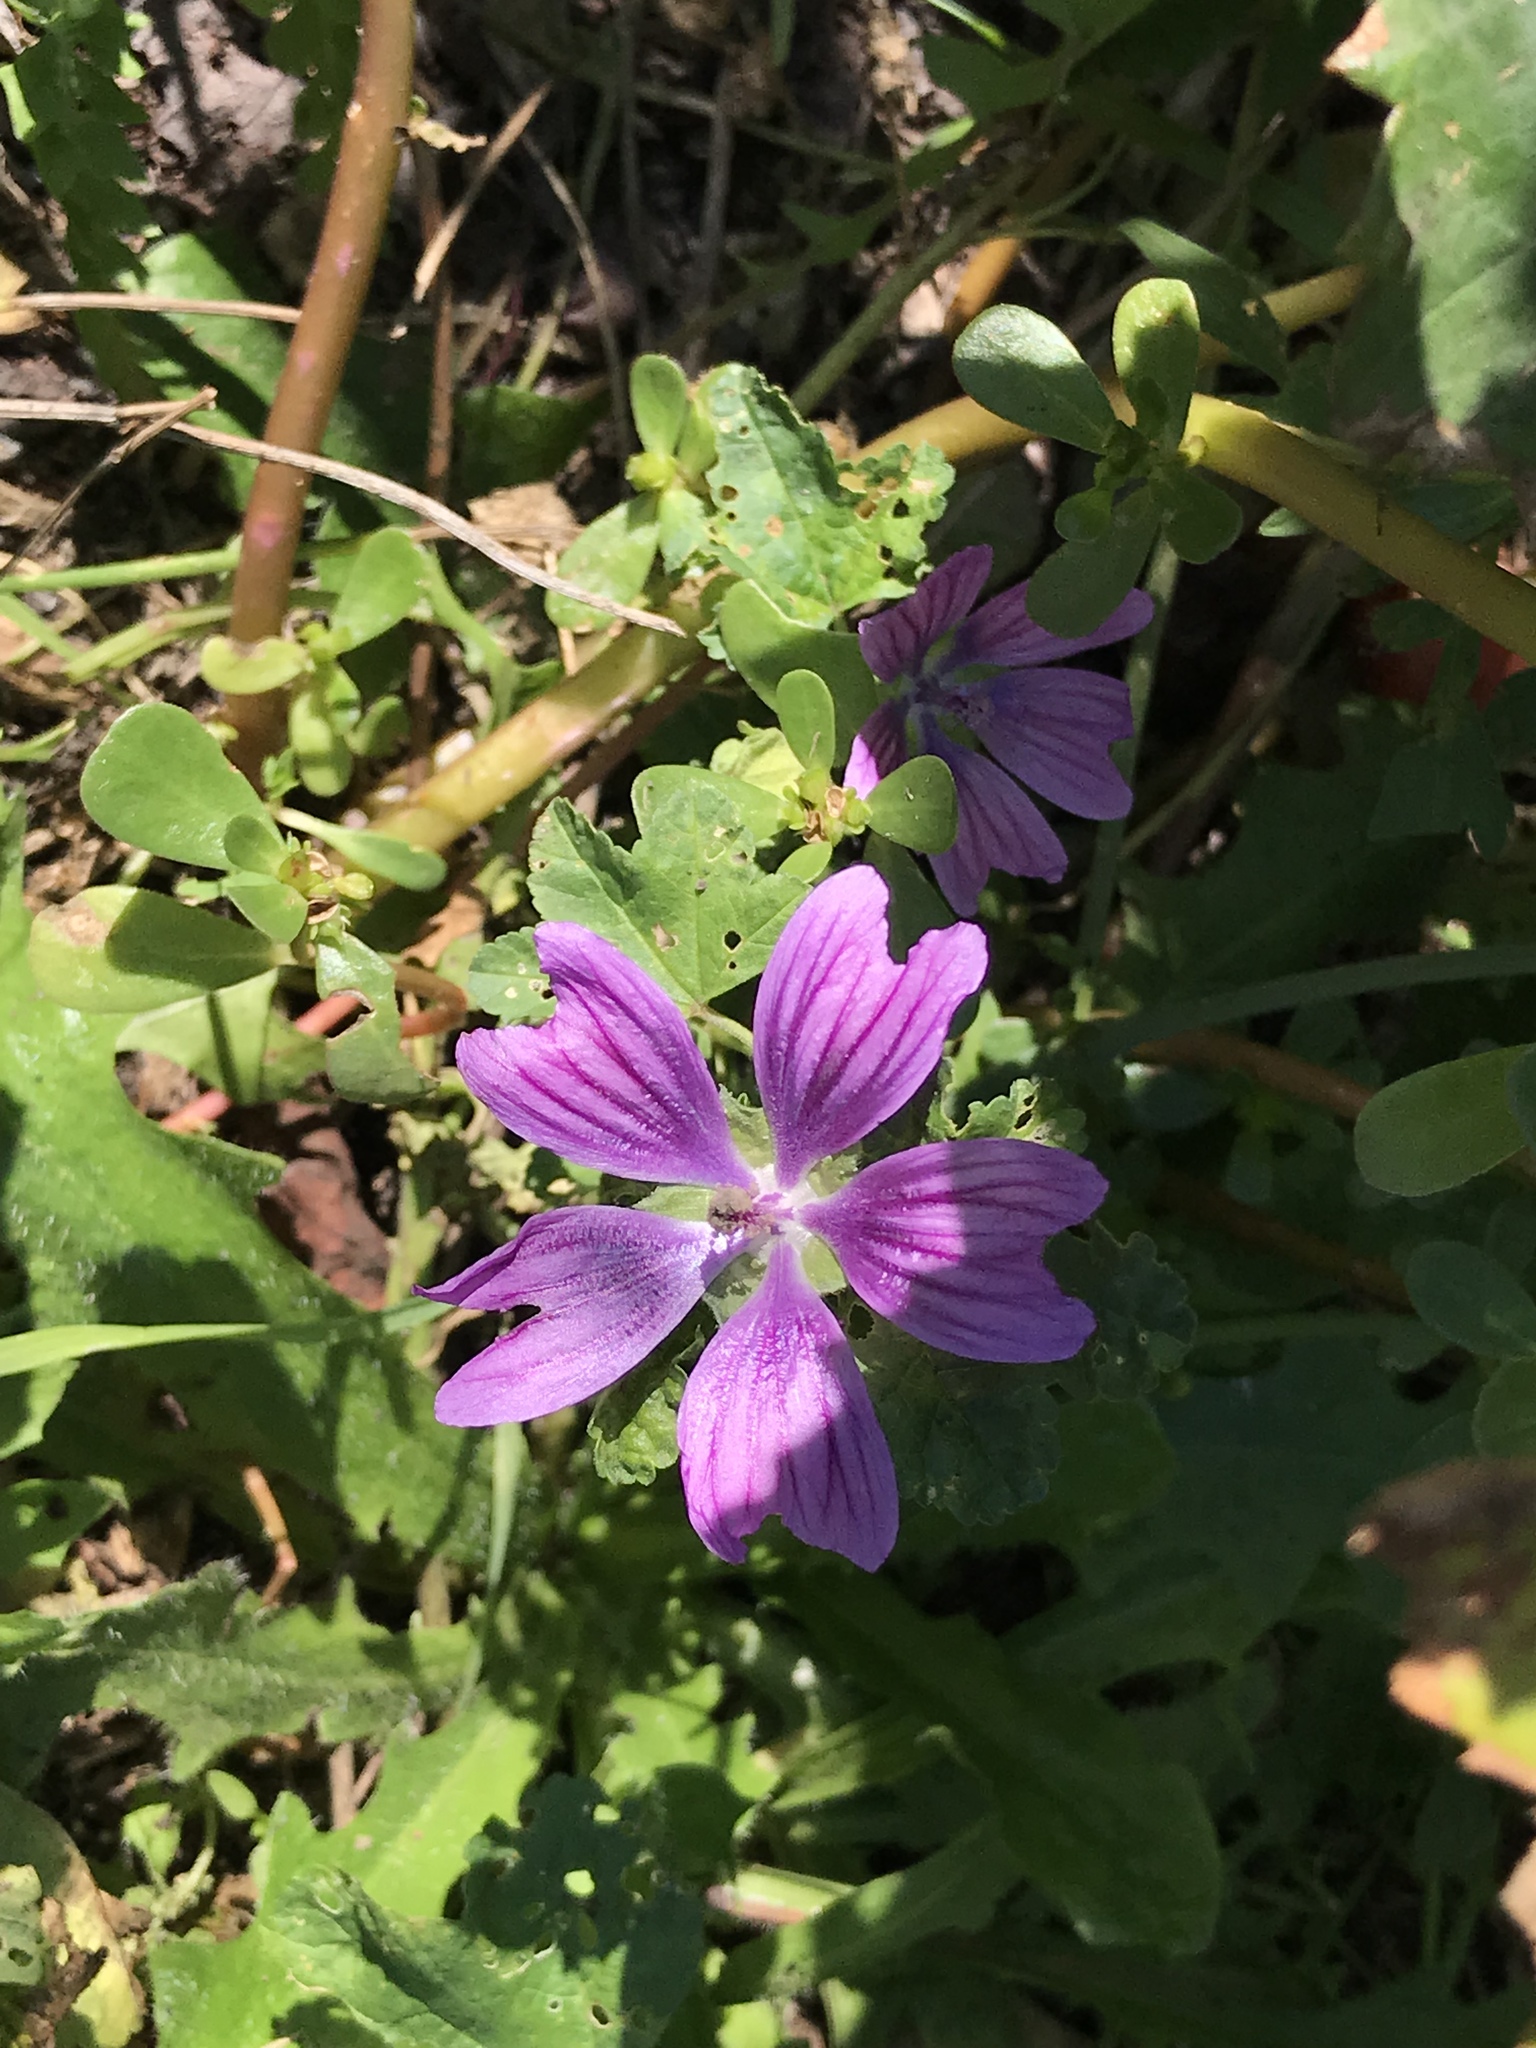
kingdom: Plantae
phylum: Tracheophyta
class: Magnoliopsida
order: Malvales
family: Malvaceae
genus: Malva
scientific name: Malva sylvestris
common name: Common mallow
